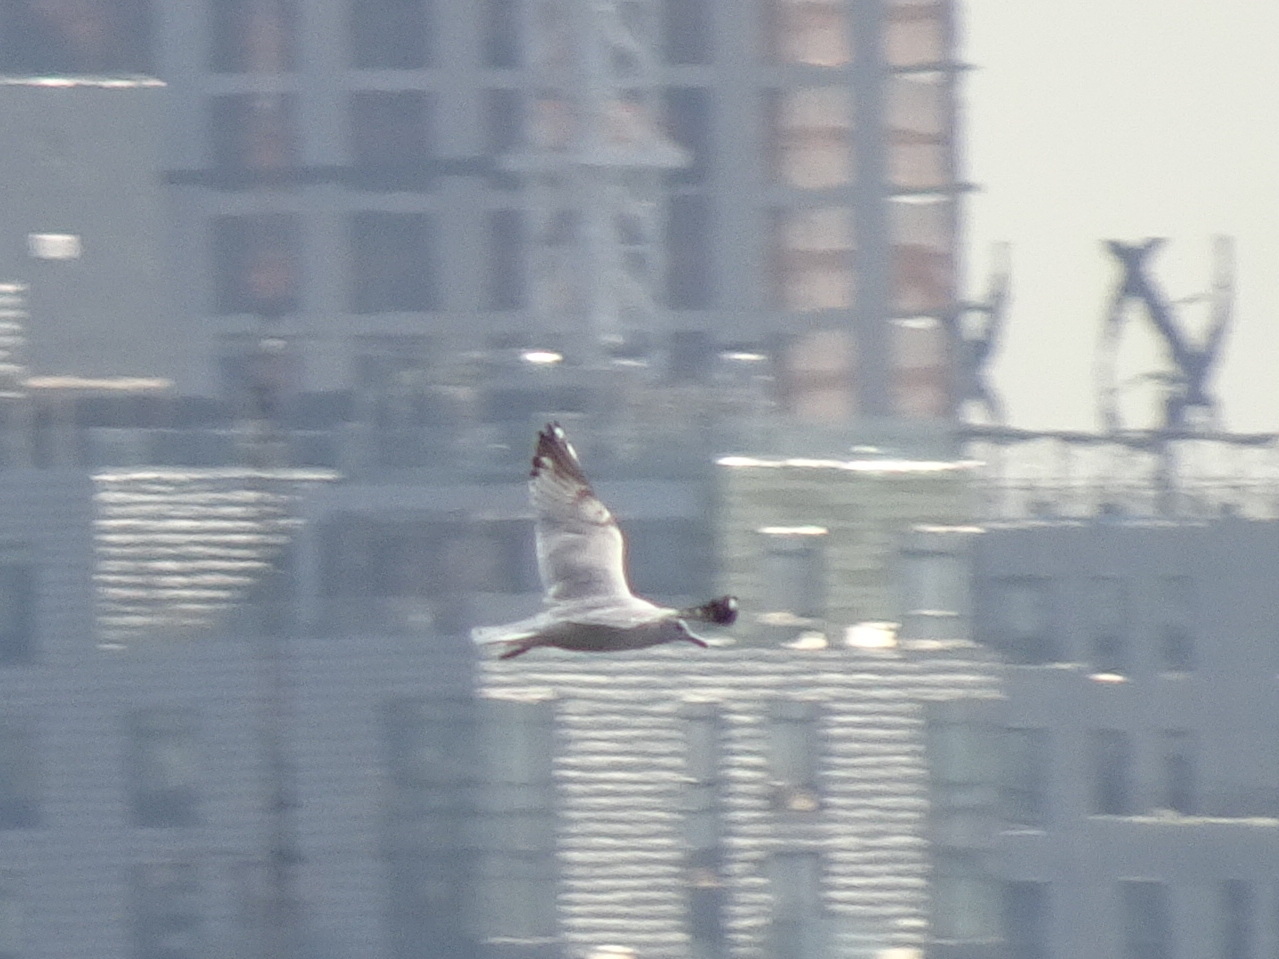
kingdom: Animalia
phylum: Chordata
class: Aves
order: Charadriiformes
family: Laridae
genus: Larus
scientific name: Larus argentatus
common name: Herring gull
